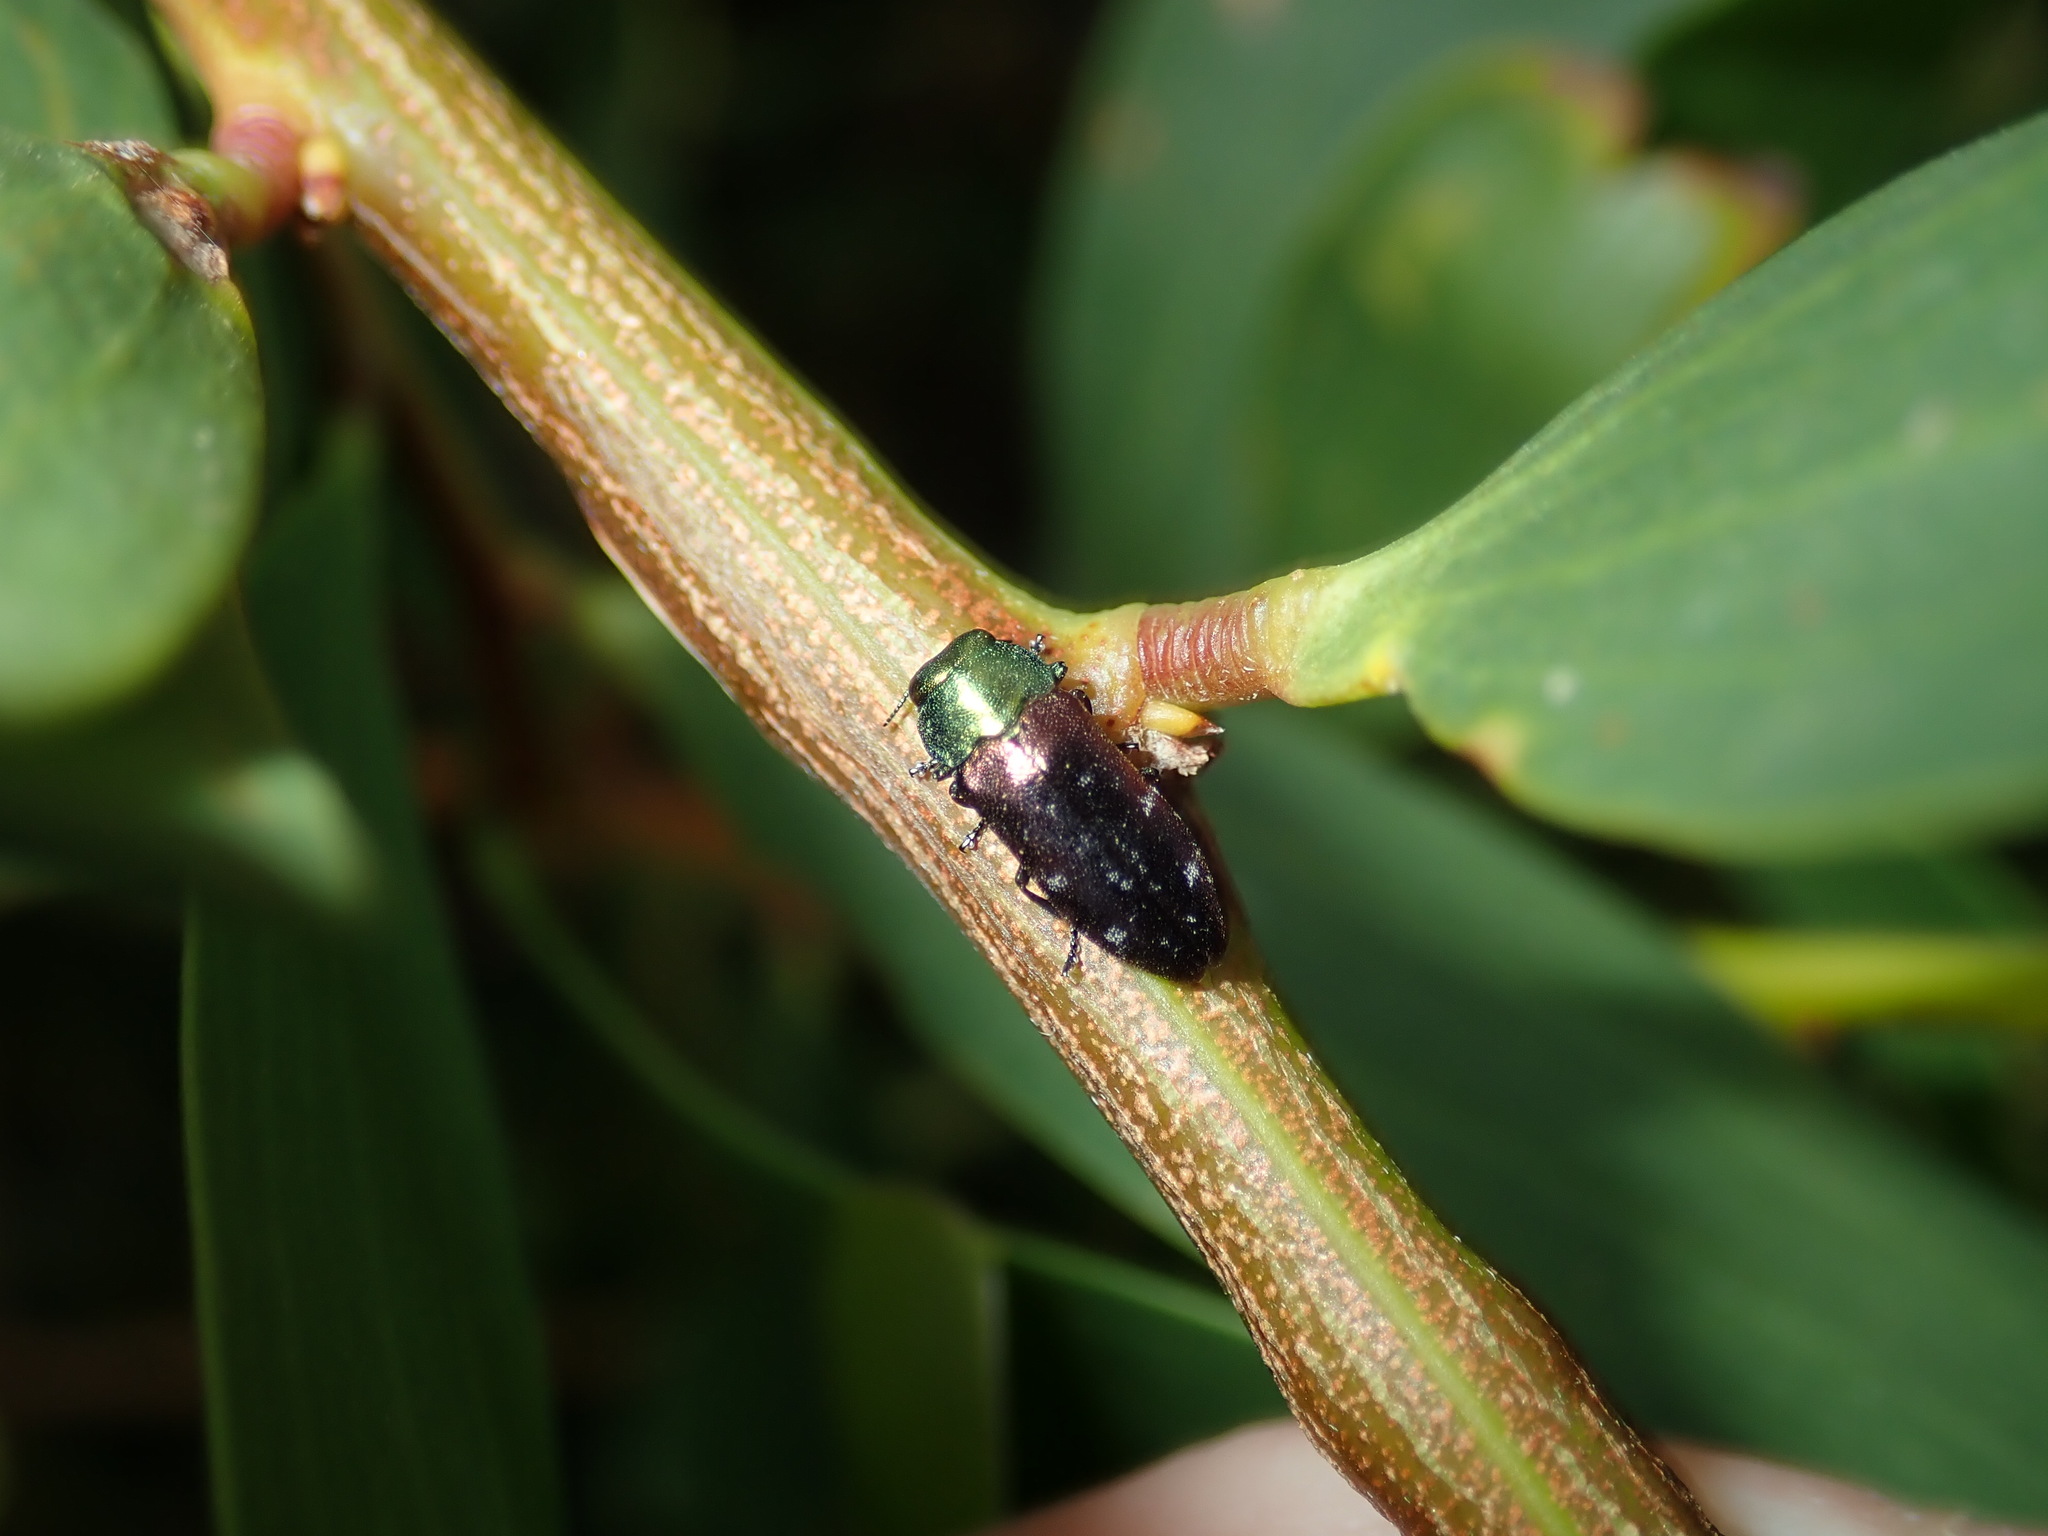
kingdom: Animalia
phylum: Arthropoda
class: Insecta
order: Coleoptera
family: Buprestidae
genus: Diphucrania
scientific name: Diphucrania marmorata
